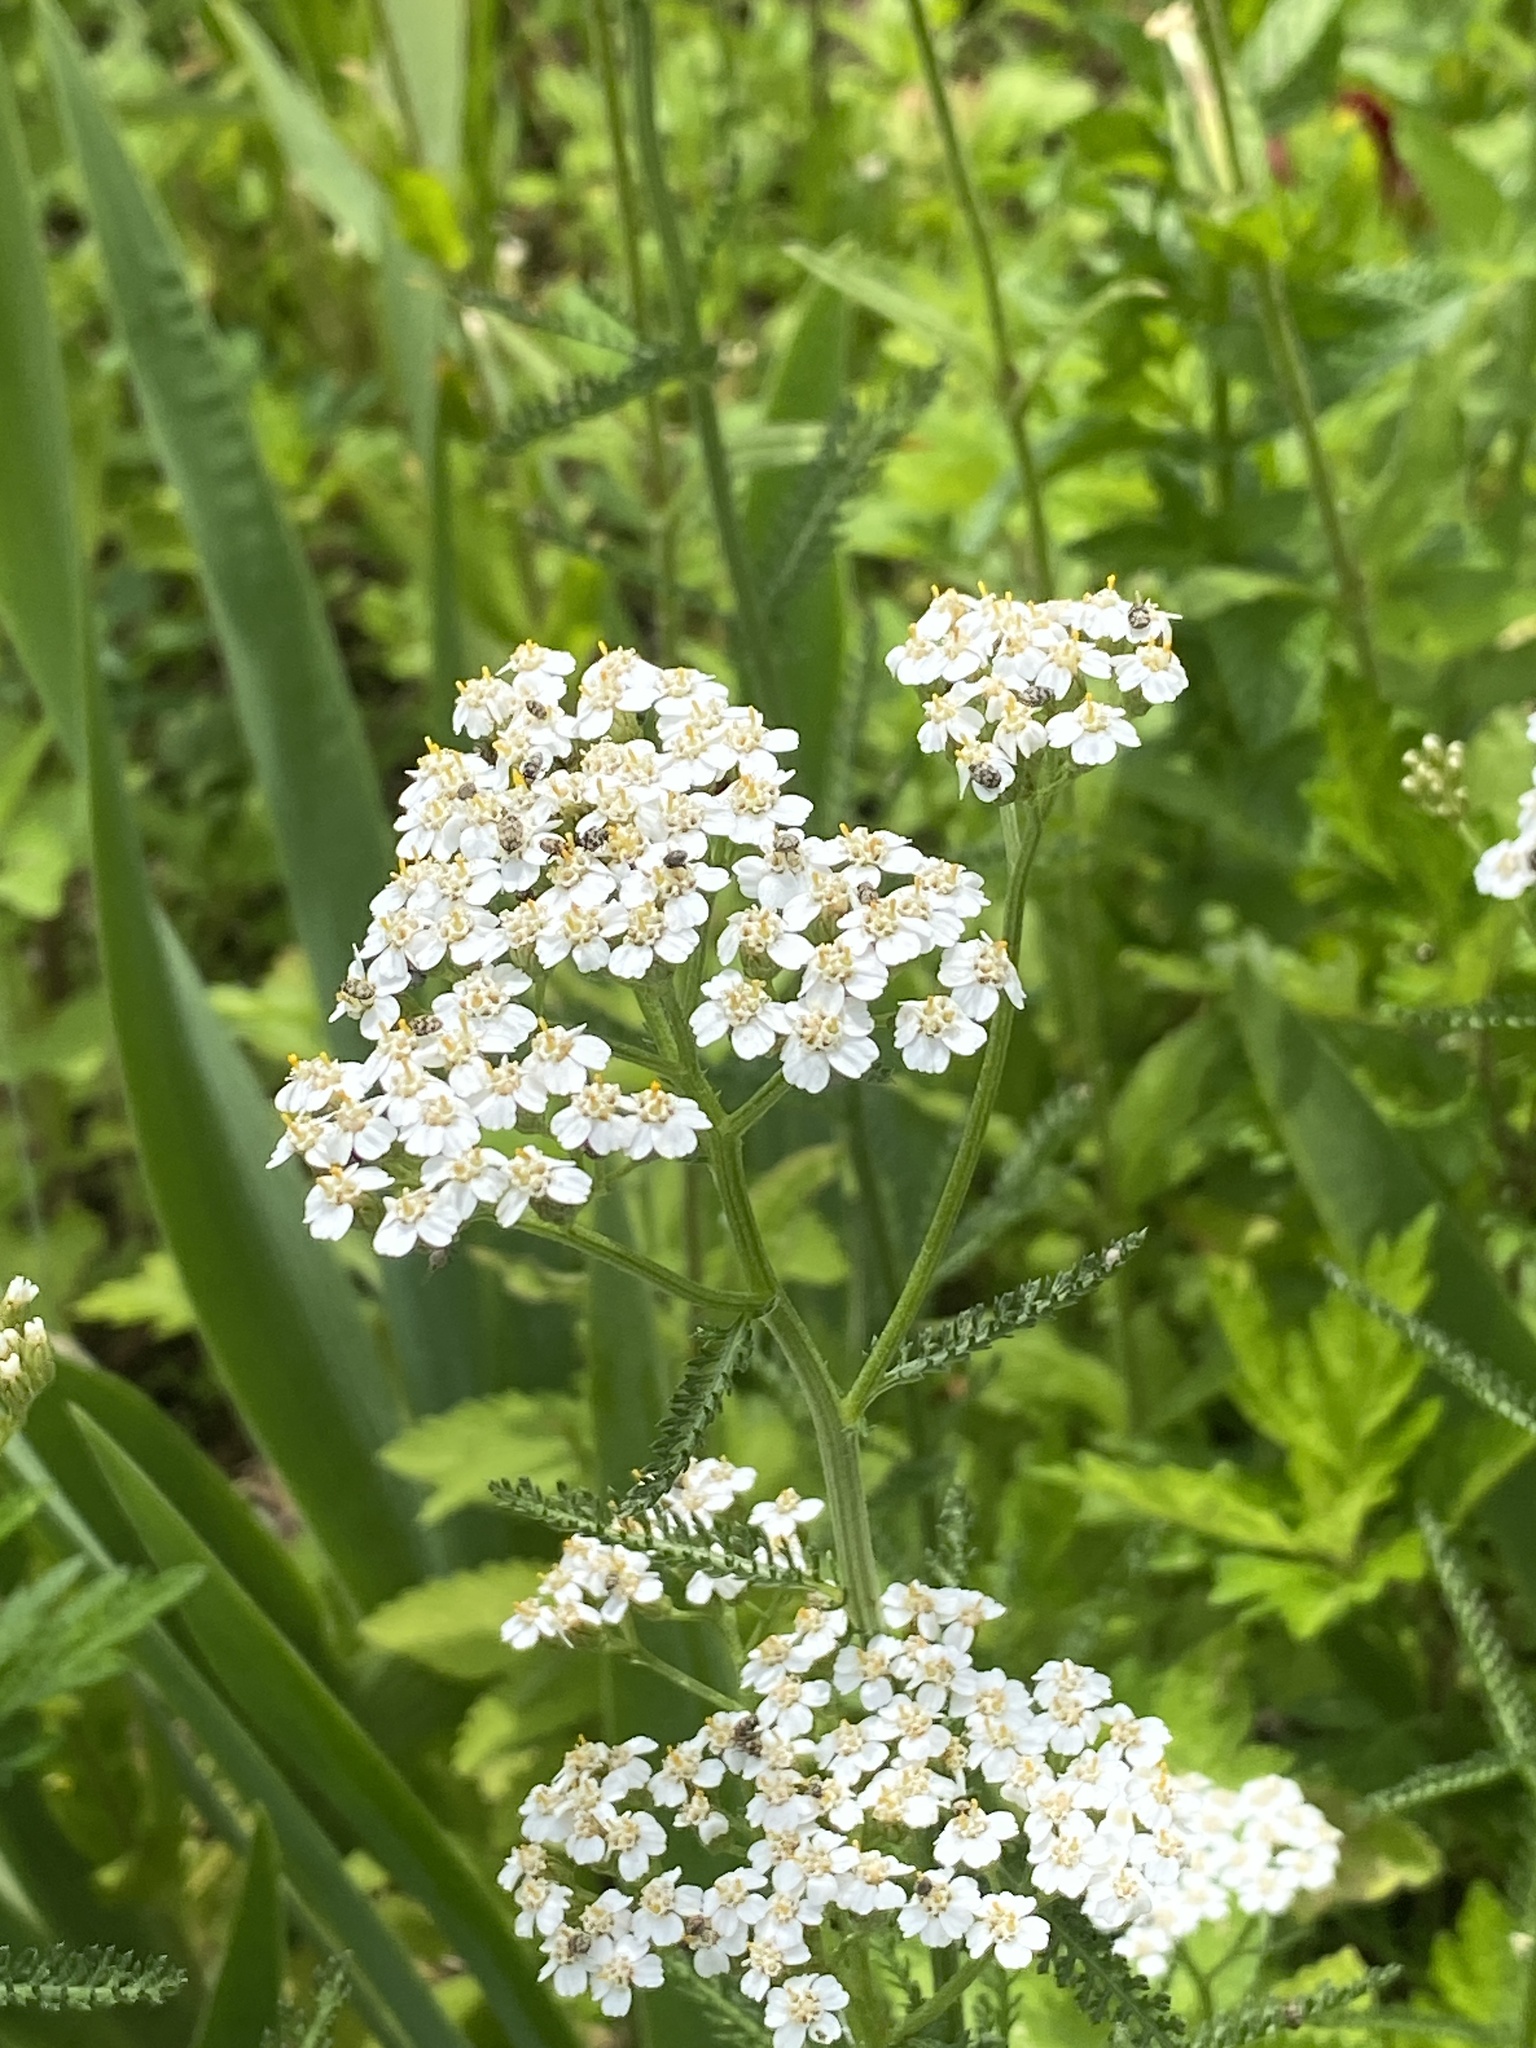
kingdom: Plantae
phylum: Tracheophyta
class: Magnoliopsida
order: Asterales
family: Asteraceae
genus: Achillea
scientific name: Achillea millefolium
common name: Yarrow
